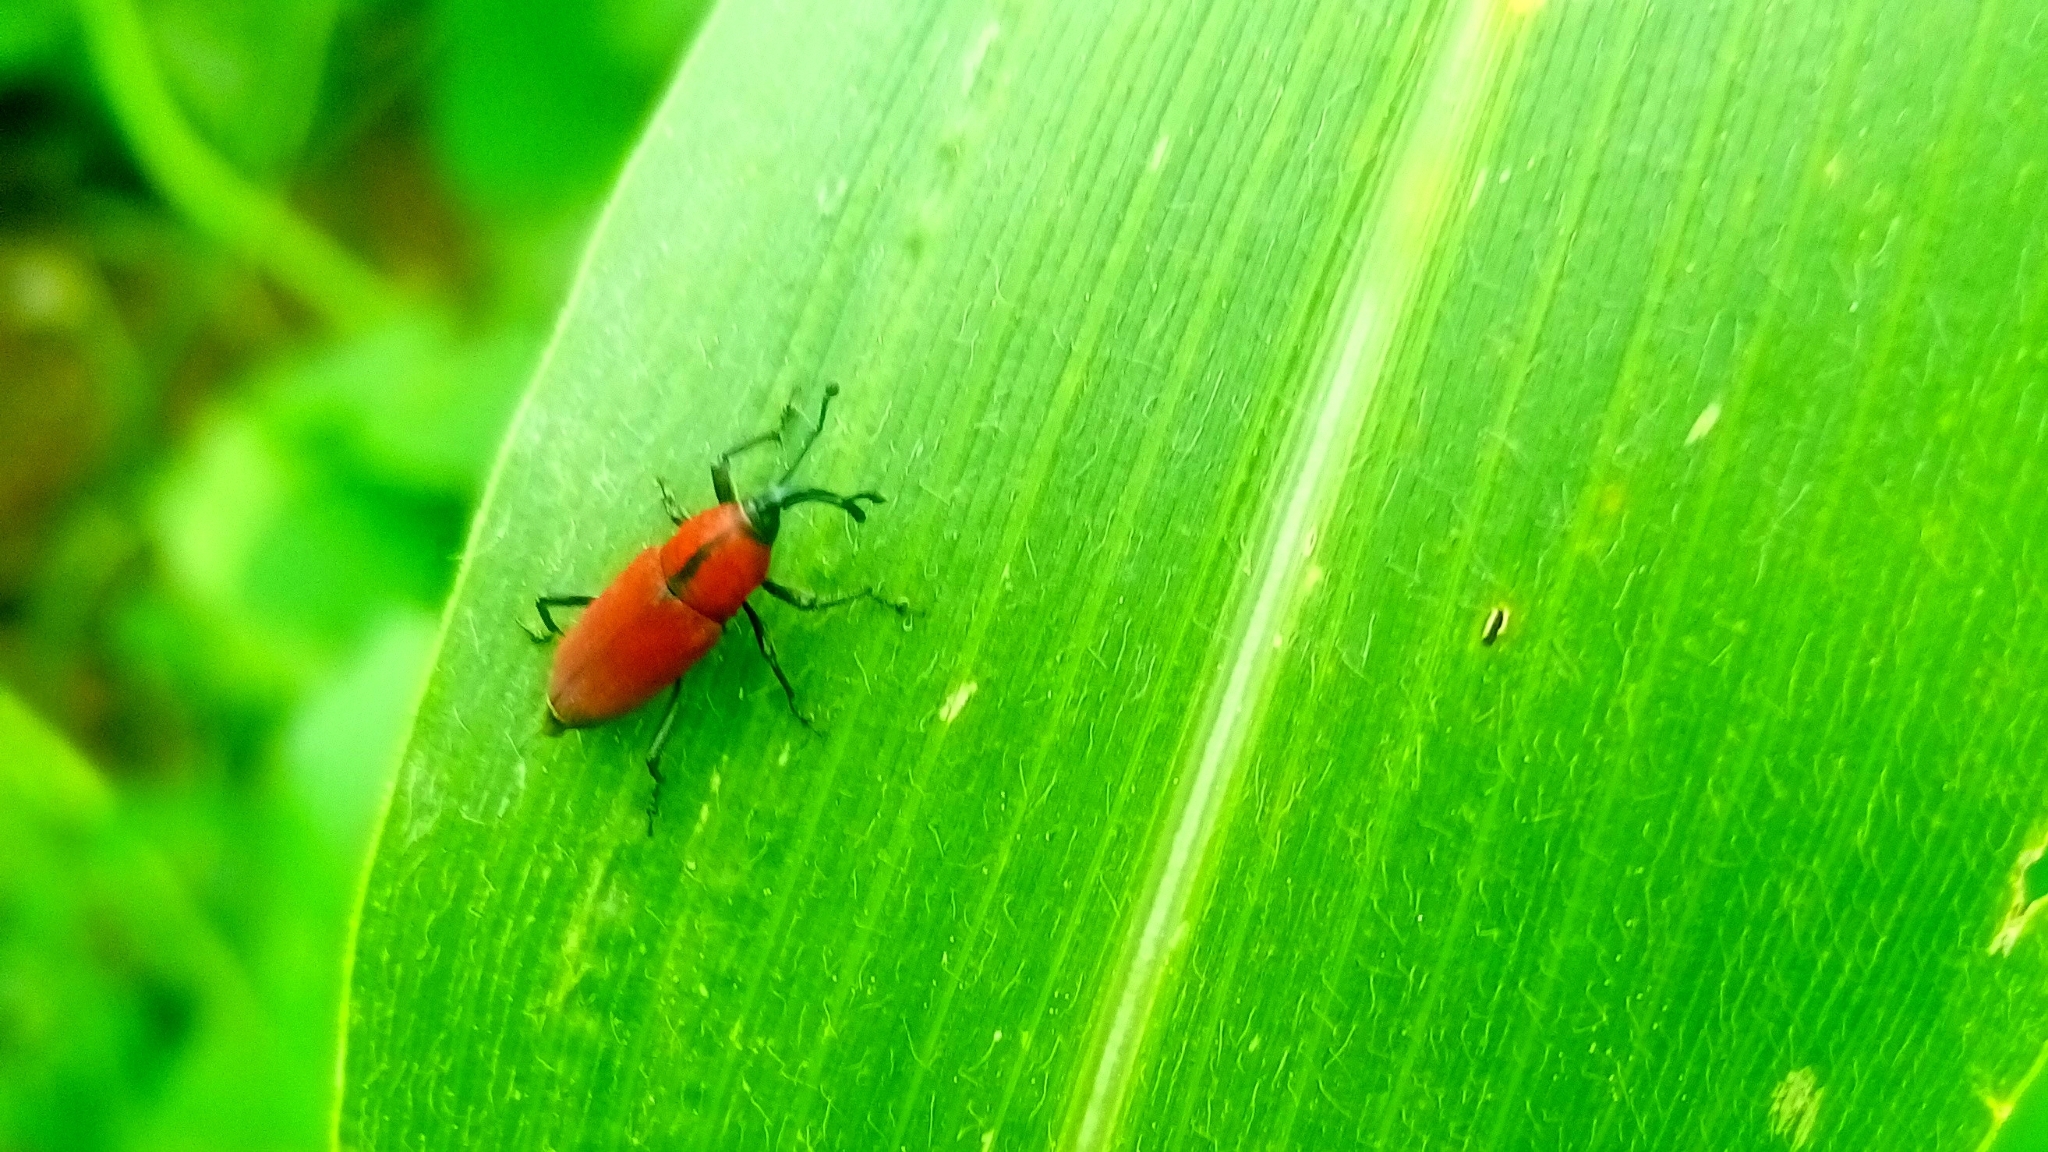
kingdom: Animalia
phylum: Arthropoda
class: Insecta
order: Coleoptera
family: Dryophthoridae
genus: Rhodobaenus
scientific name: Rhodobaenus sanguineus
